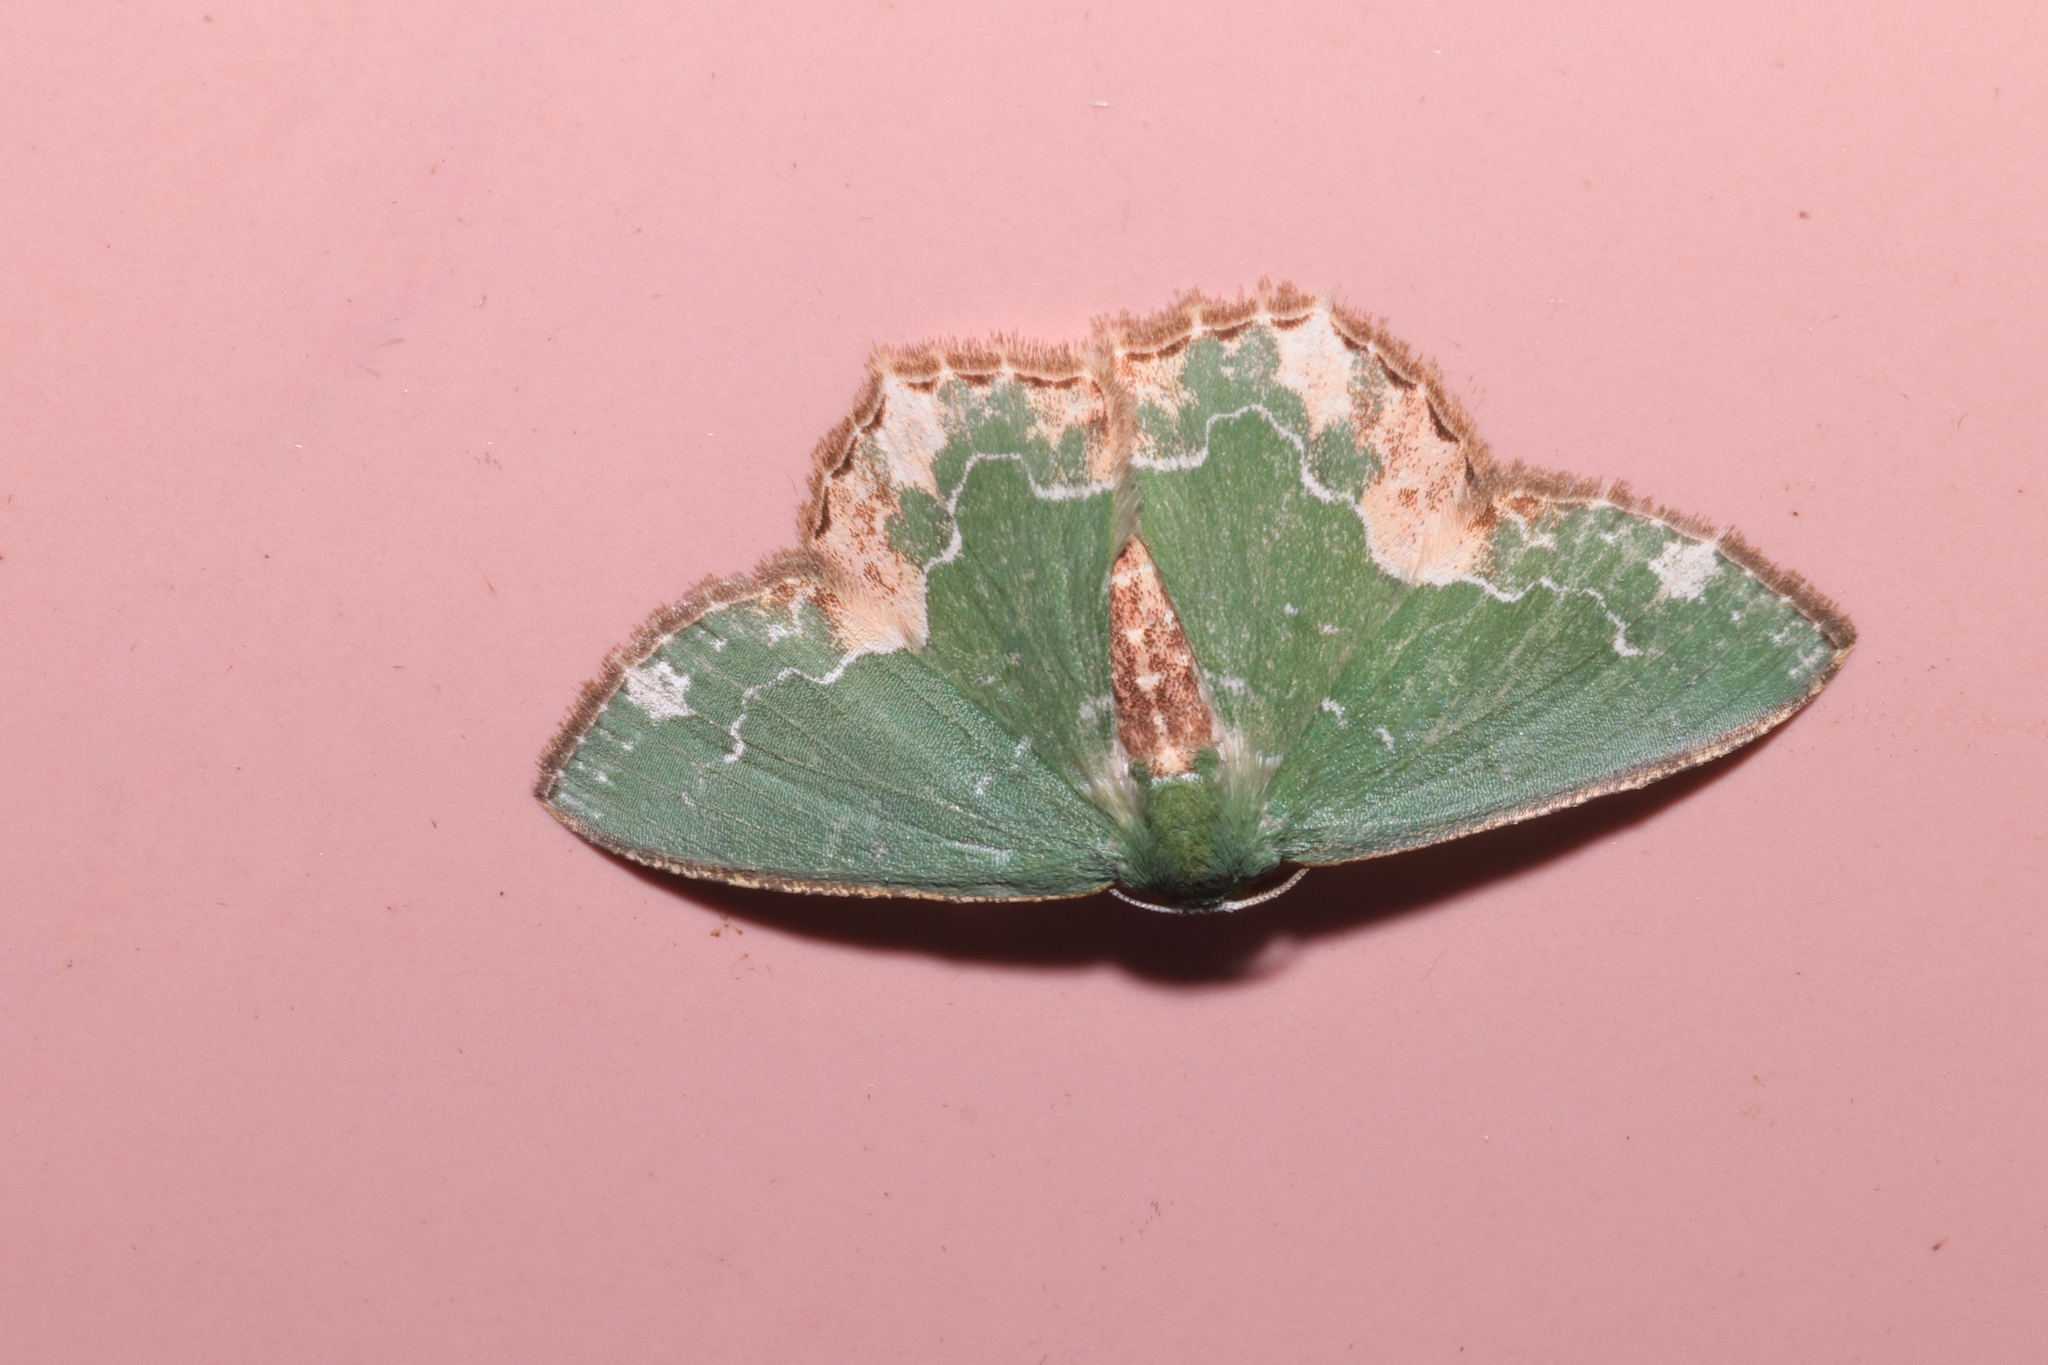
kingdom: Animalia
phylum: Arthropoda
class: Insecta
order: Lepidoptera
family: Geometridae
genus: Eucyclodes
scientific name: Eucyclodes infracta
